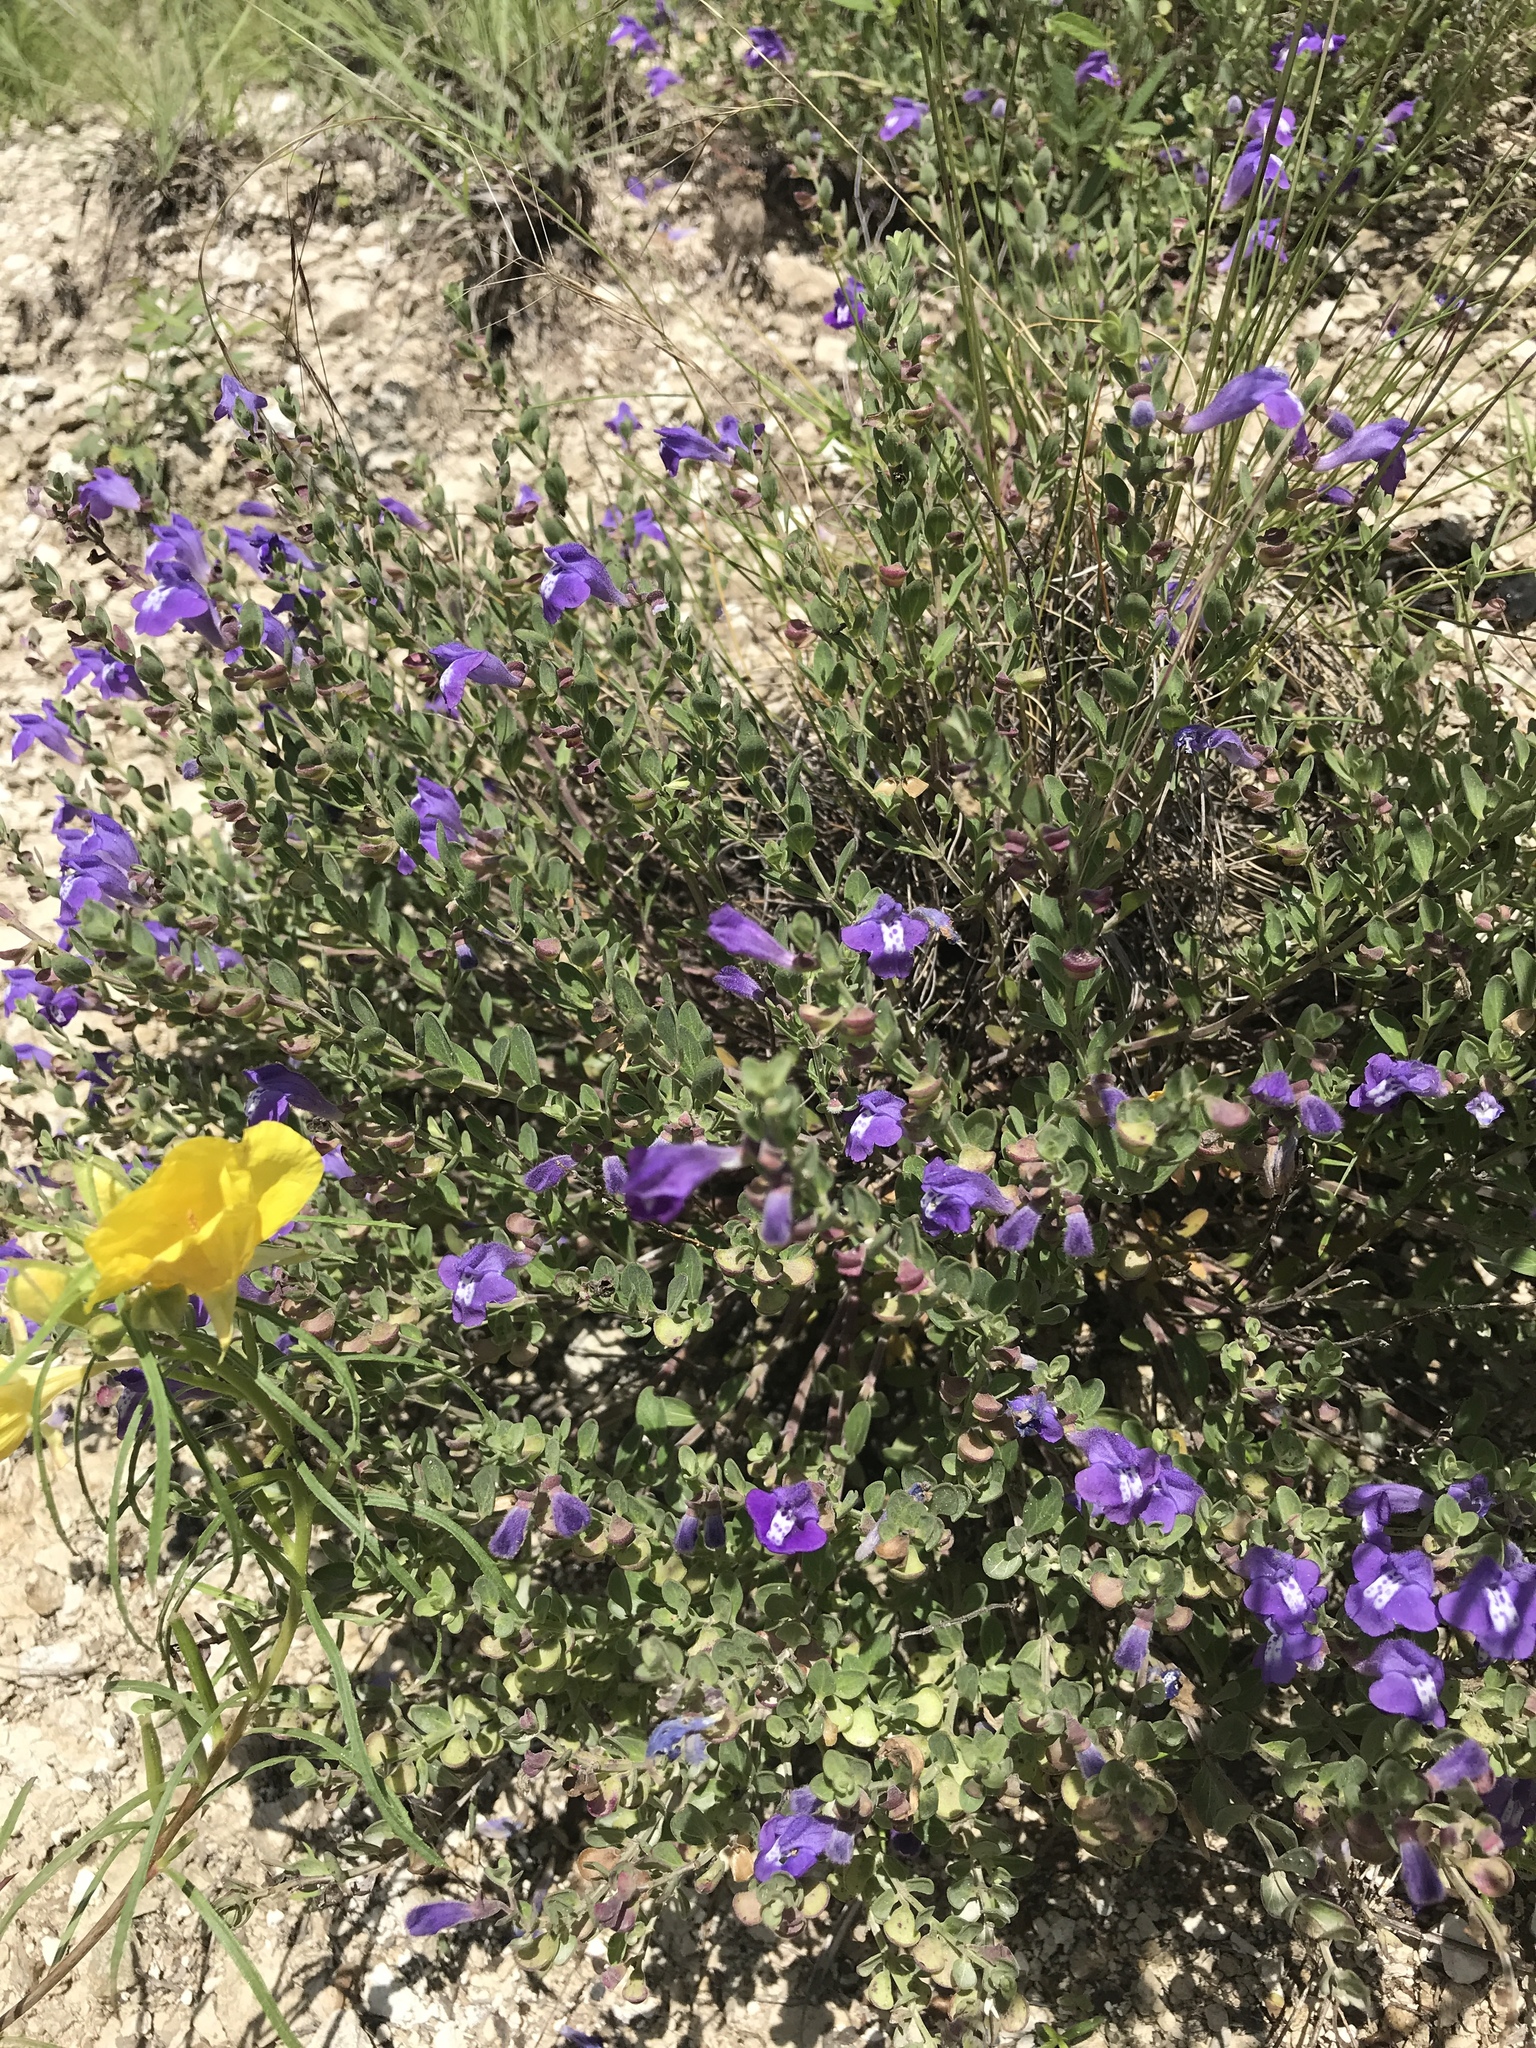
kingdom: Plantae
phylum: Tracheophyta
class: Magnoliopsida
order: Lamiales
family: Lamiaceae
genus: Scutellaria
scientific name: Scutellaria wrightii
